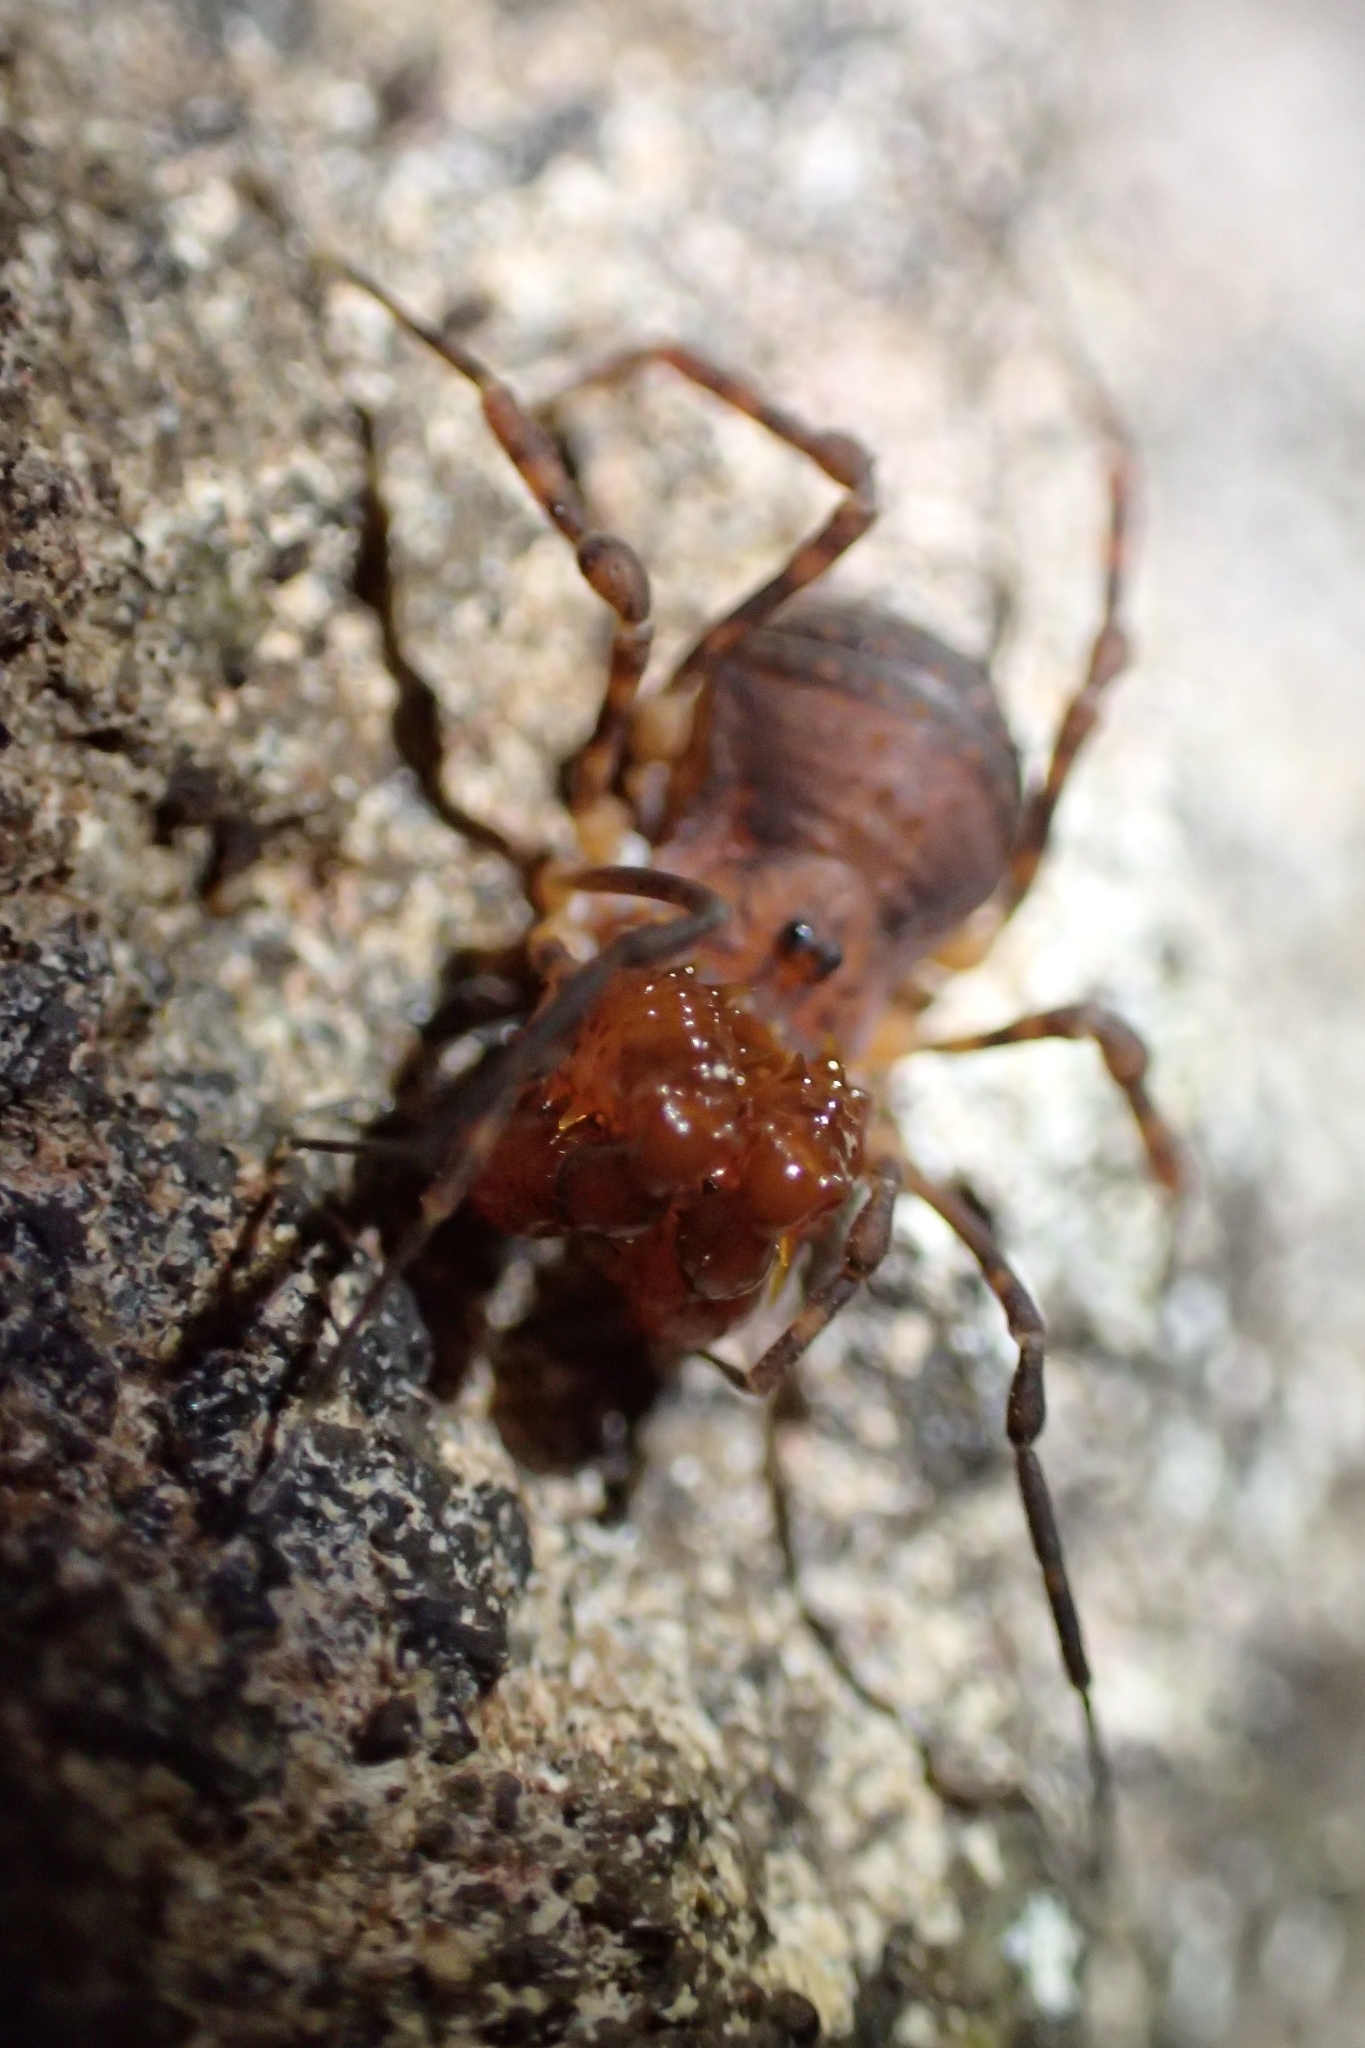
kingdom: Animalia
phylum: Arthropoda
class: Arachnida
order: Opiliones
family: Triaenonychidae
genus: Sorensenella
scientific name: Sorensenella prehensor
